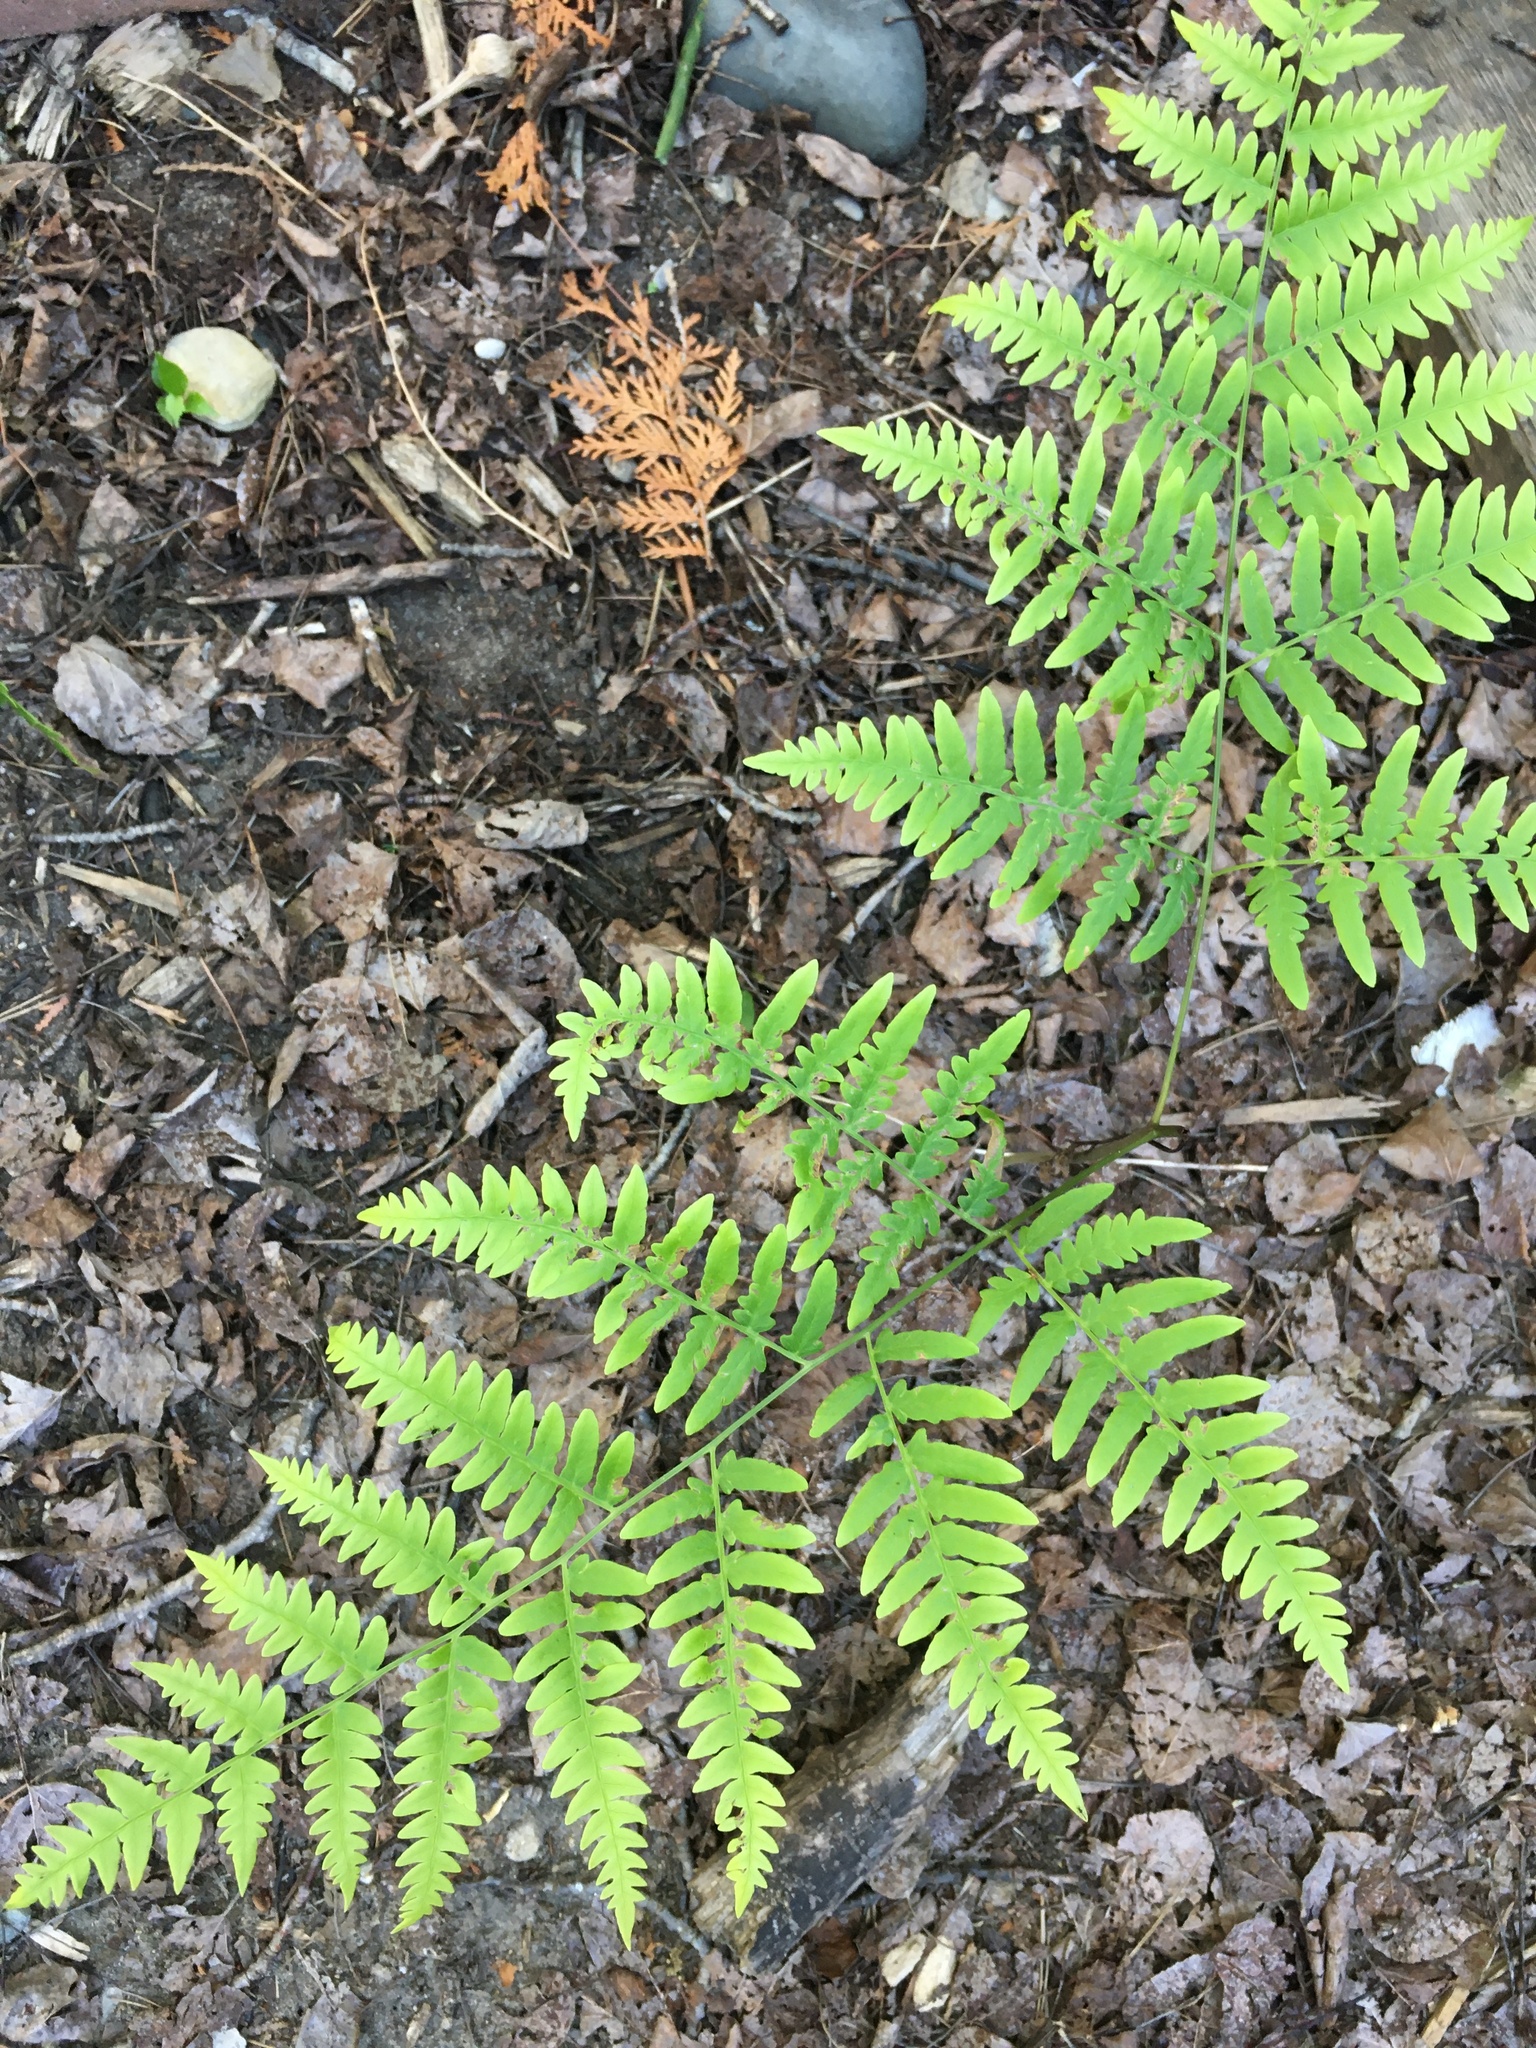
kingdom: Plantae
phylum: Tracheophyta
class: Polypodiopsida
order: Polypodiales
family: Dennstaedtiaceae
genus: Pteridium
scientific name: Pteridium aquilinum
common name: Bracken
